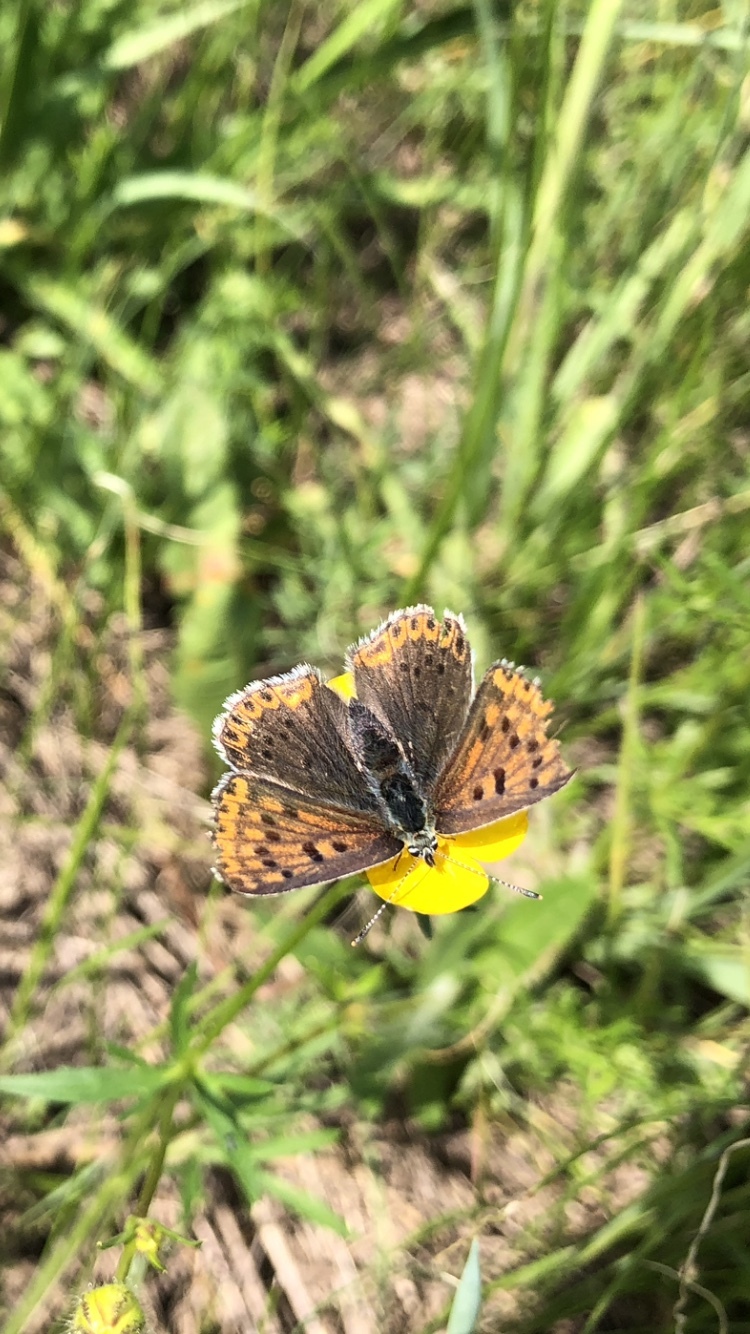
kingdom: Animalia
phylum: Arthropoda
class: Insecta
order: Lepidoptera
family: Lycaenidae
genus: Loweia
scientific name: Loweia tityrus
